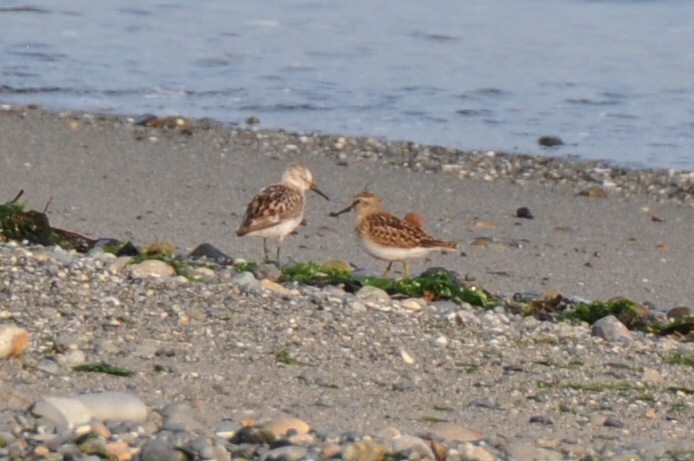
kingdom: Animalia
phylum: Chordata
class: Aves
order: Charadriiformes
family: Scolopacidae
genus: Calidris
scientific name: Calidris mauri
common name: Western sandpiper
